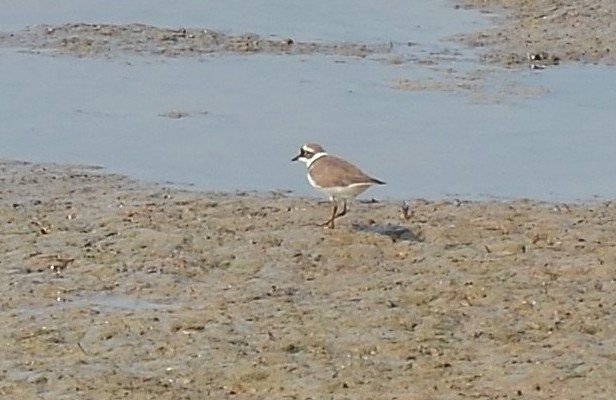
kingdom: Animalia
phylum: Chordata
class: Aves
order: Charadriiformes
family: Charadriidae
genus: Charadrius
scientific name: Charadrius dubius
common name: Little ringed plover
